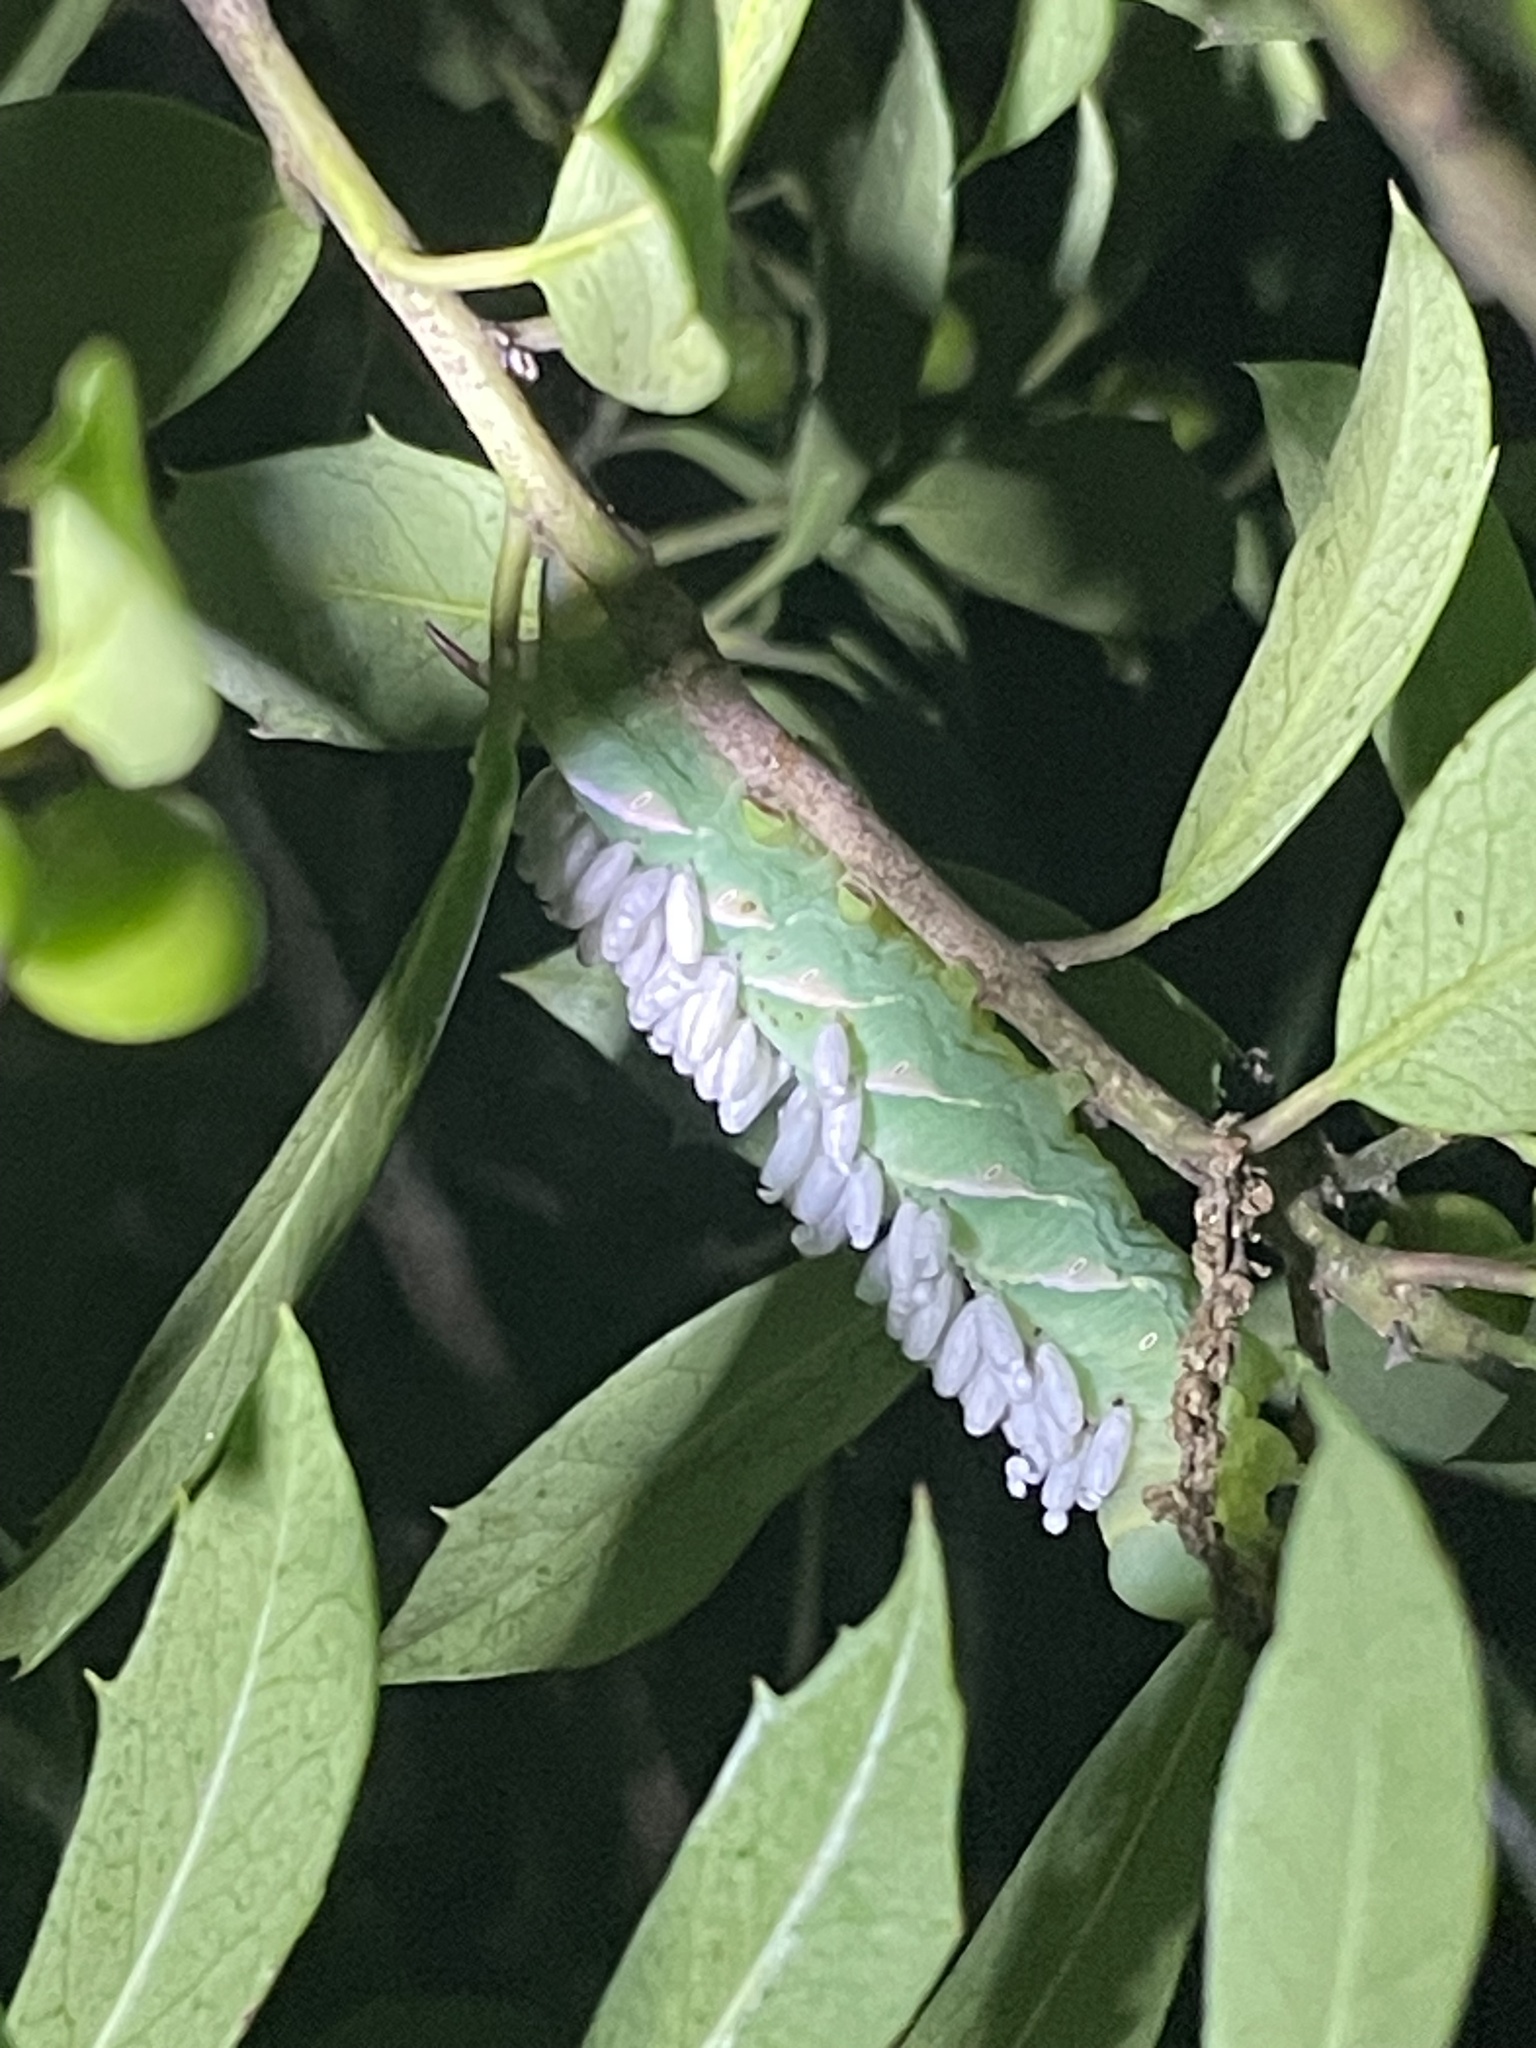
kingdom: Animalia
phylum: Arthropoda
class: Insecta
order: Lepidoptera
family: Sphingidae
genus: Dolba
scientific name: Dolba hyloeus
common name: Pawpaw sphinx
